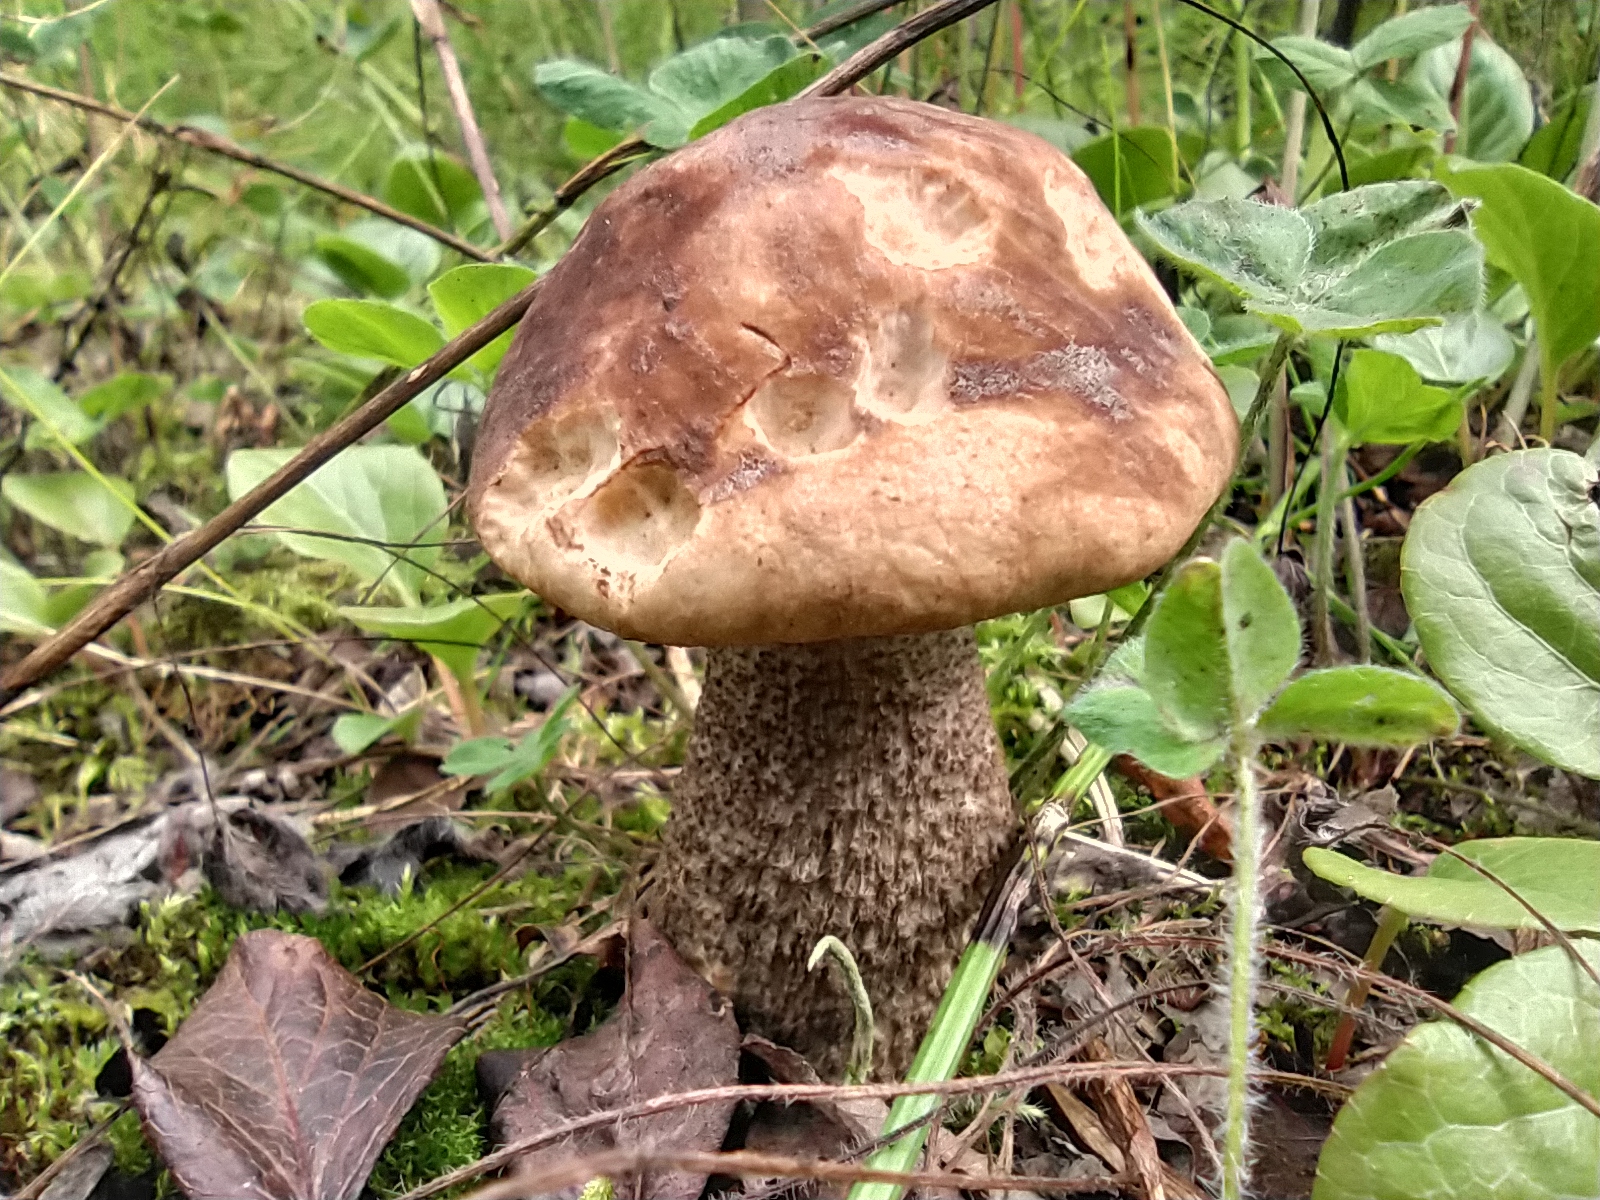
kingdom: Fungi
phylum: Basidiomycota
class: Agaricomycetes
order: Boletales
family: Boletaceae
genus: Leccinum
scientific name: Leccinum scabrum
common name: Blushing bolete
